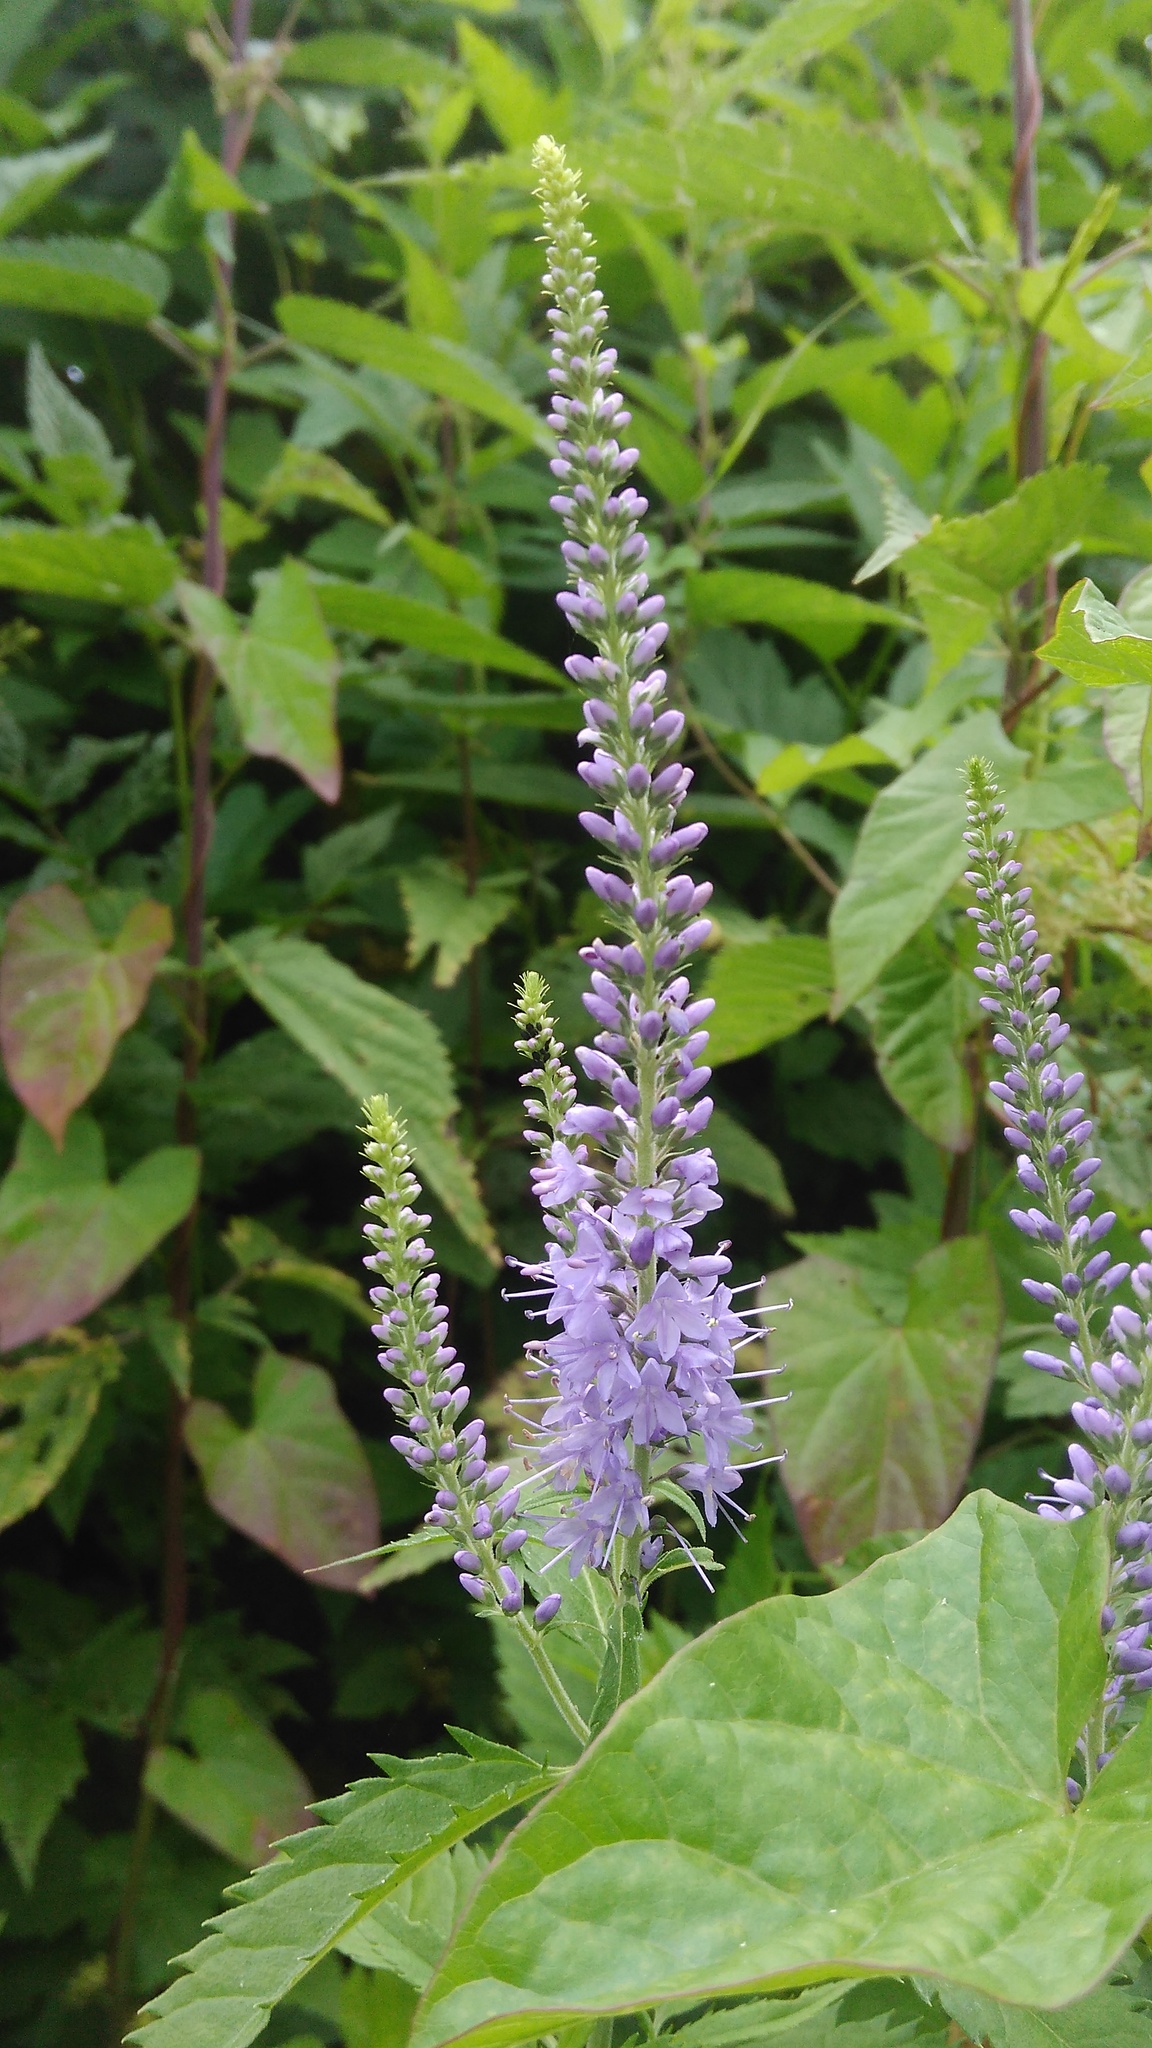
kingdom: Plantae
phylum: Tracheophyta
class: Magnoliopsida
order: Lamiales
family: Plantaginaceae
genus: Veronica
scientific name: Veronica longifolia
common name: Garden speedwell
